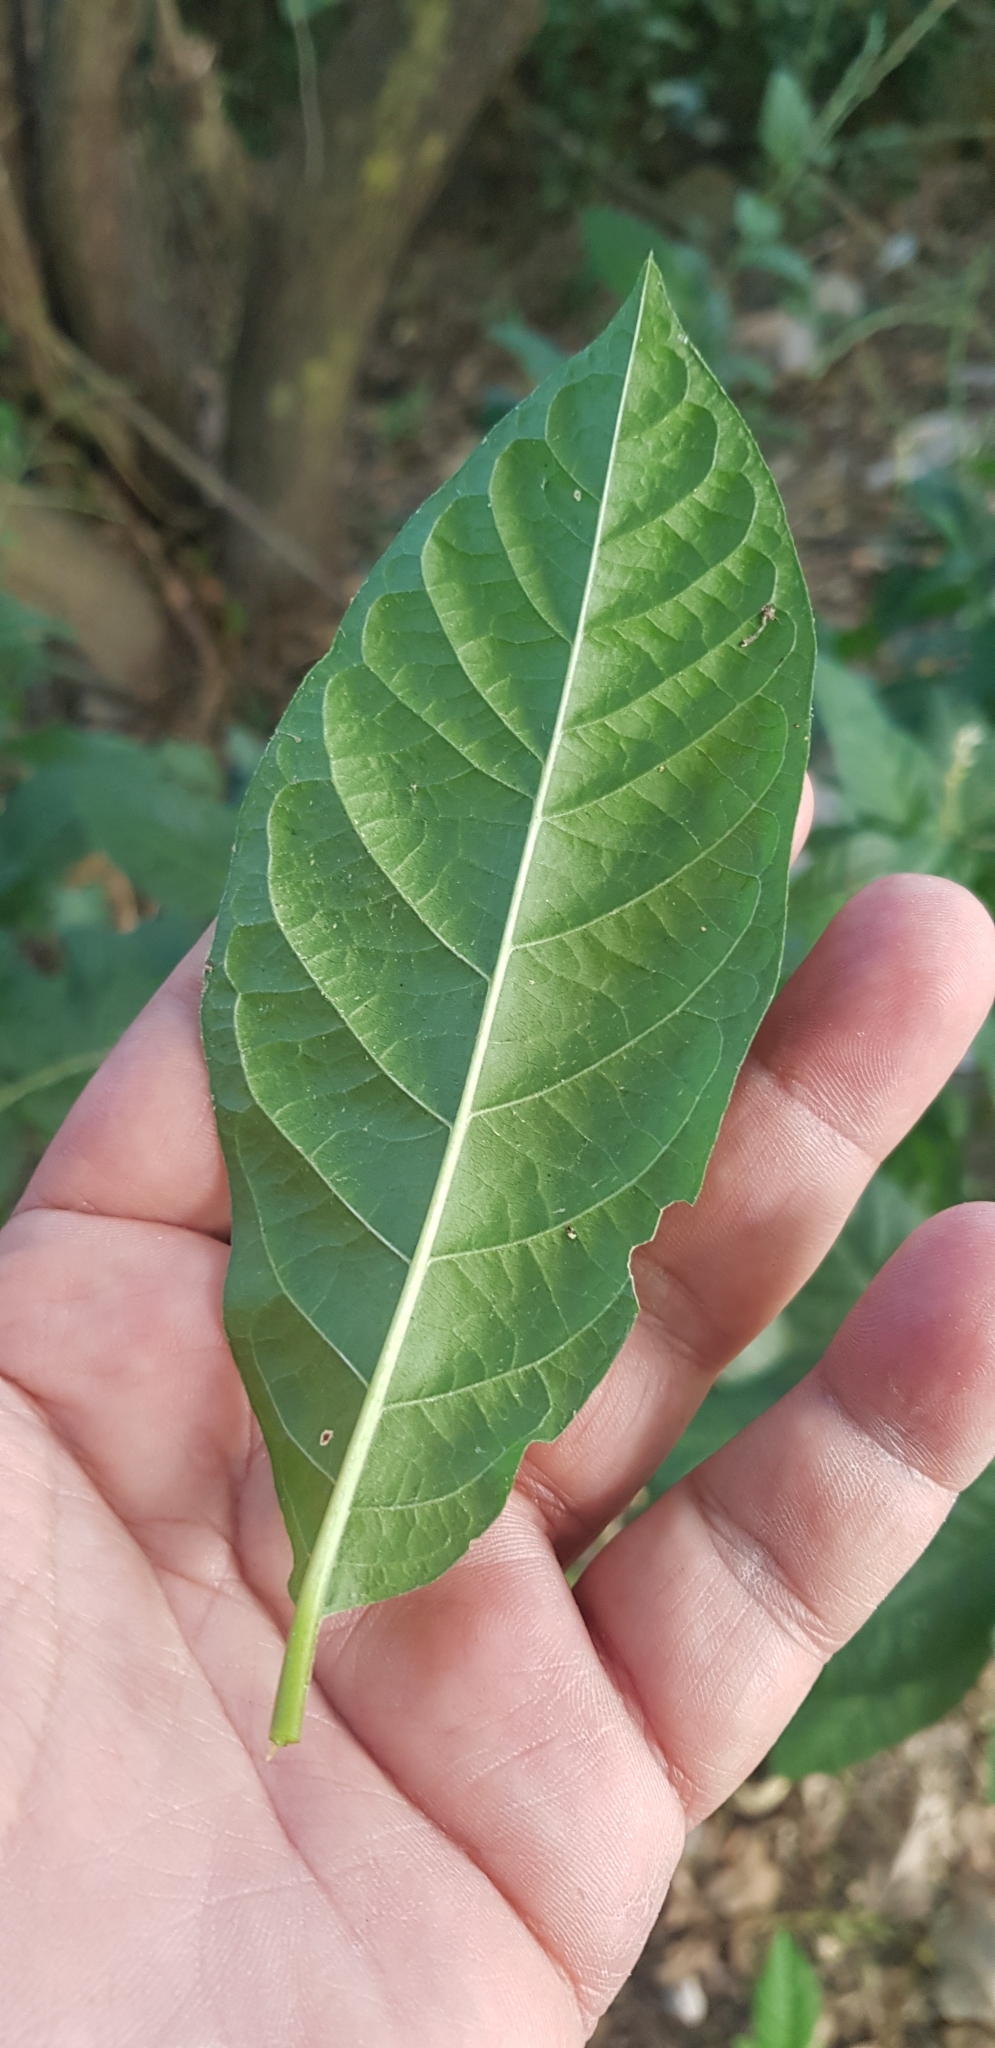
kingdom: Plantae
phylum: Tracheophyta
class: Magnoliopsida
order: Caryophyllales
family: Phytolaccaceae
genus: Petiveria
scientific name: Petiveria alliacea
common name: Garlicweed
